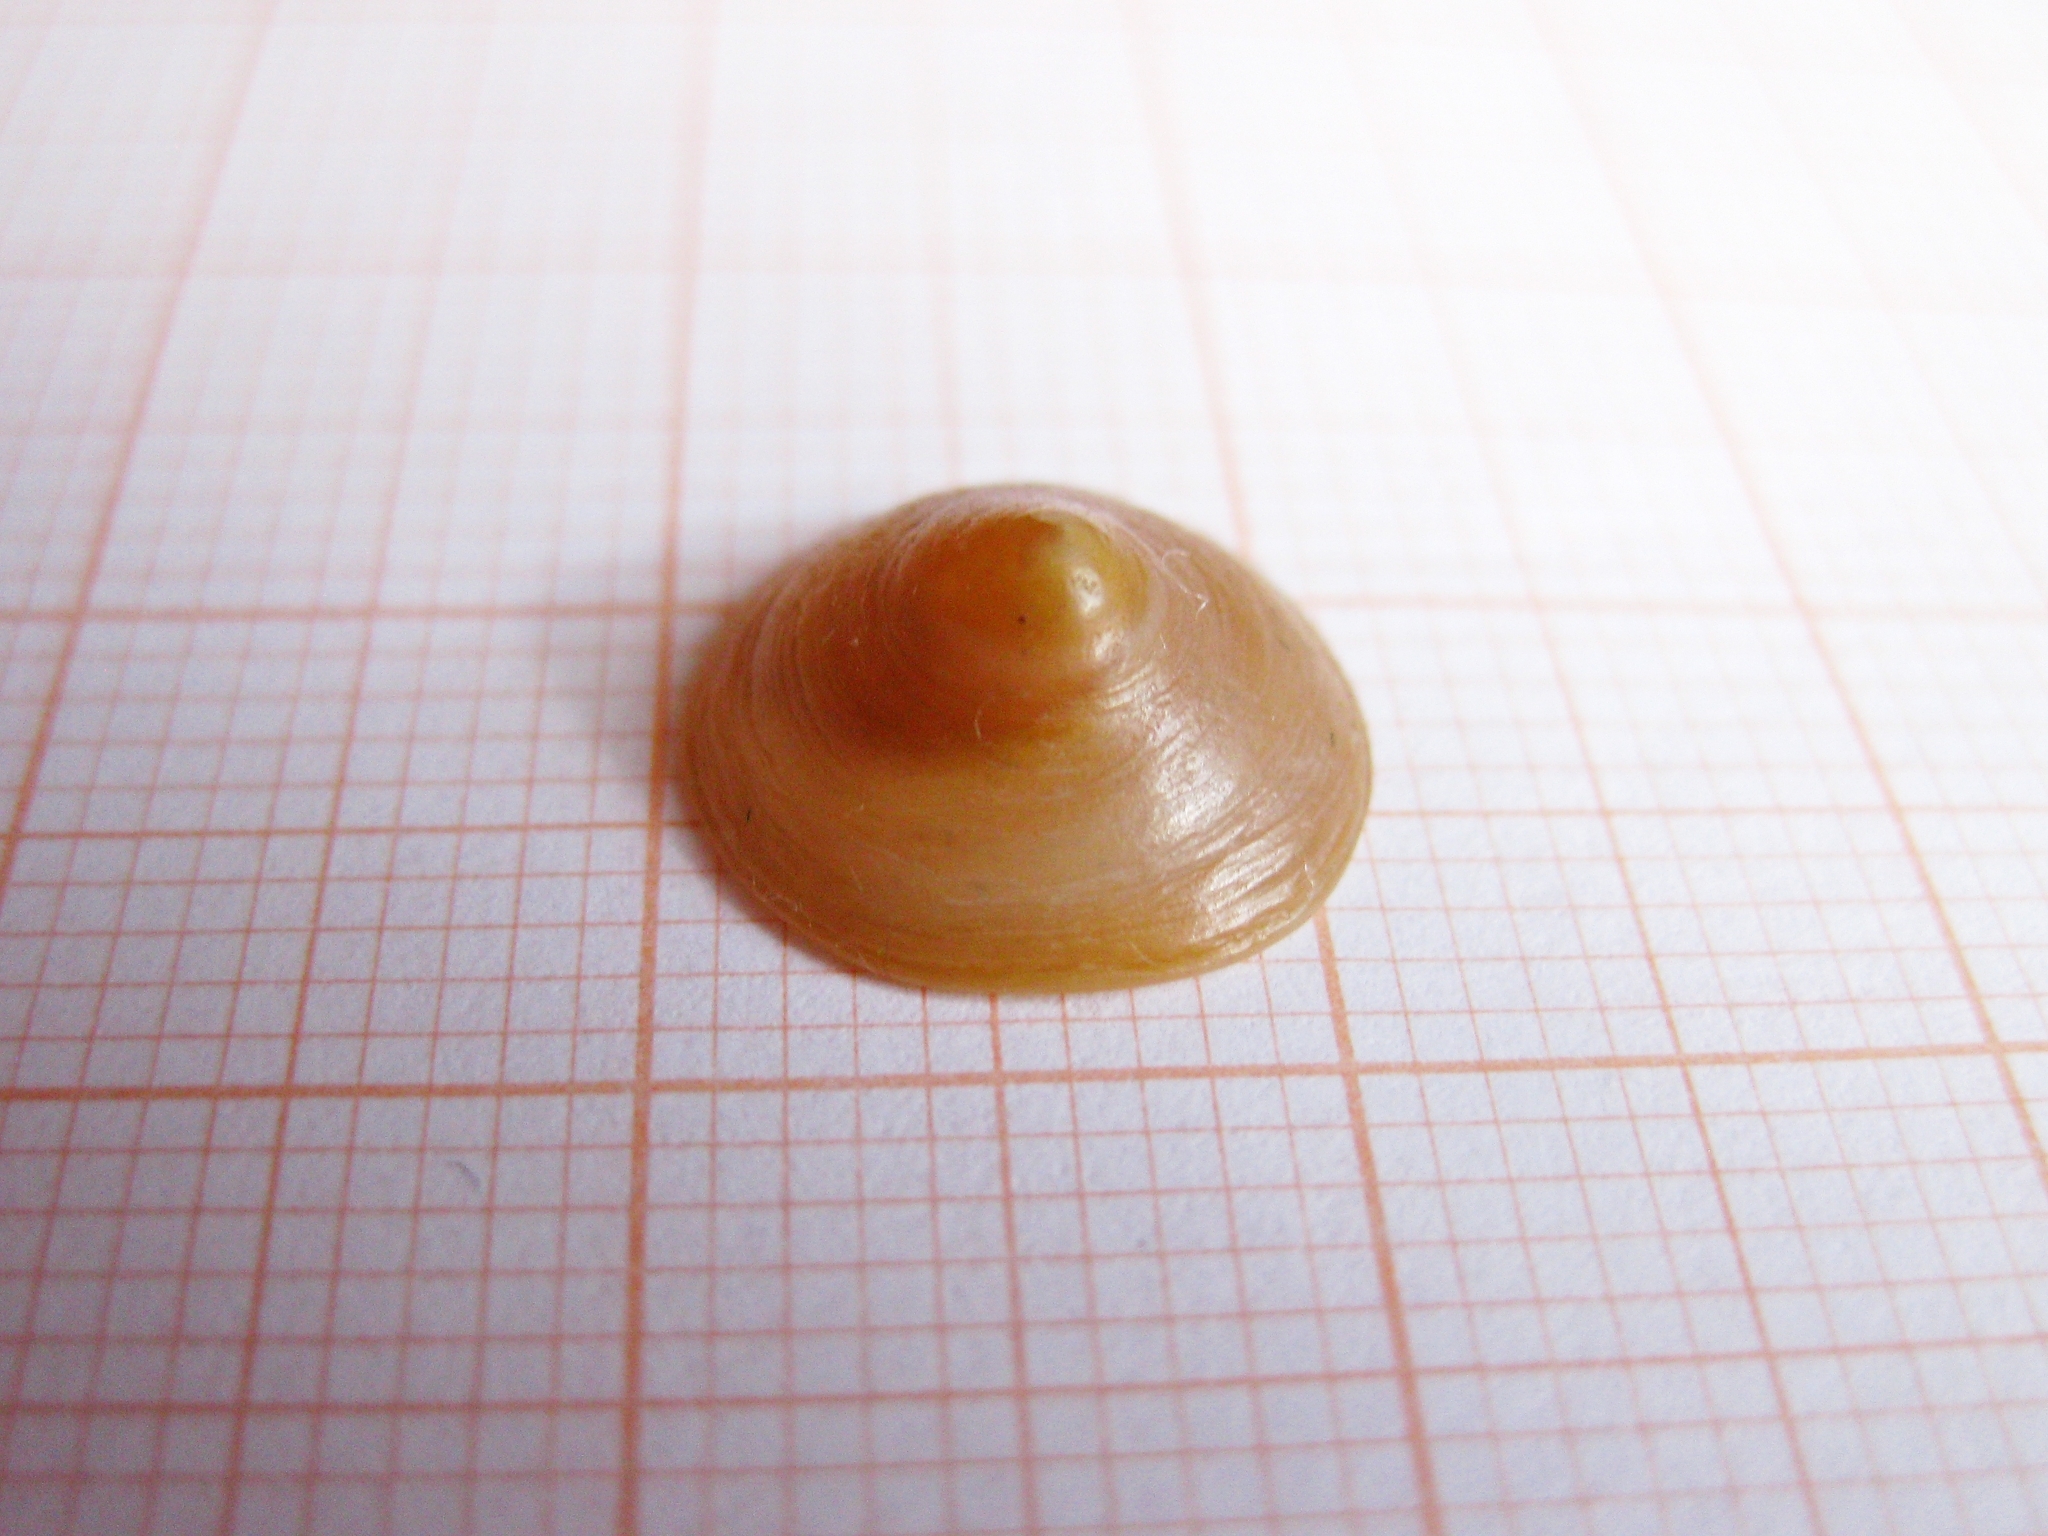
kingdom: Animalia
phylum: Mollusca
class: Gastropoda
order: Littorinimorpha
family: Calyptraeidae
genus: Calyptraea
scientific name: Calyptraea chinensis
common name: Chinaman's hat
